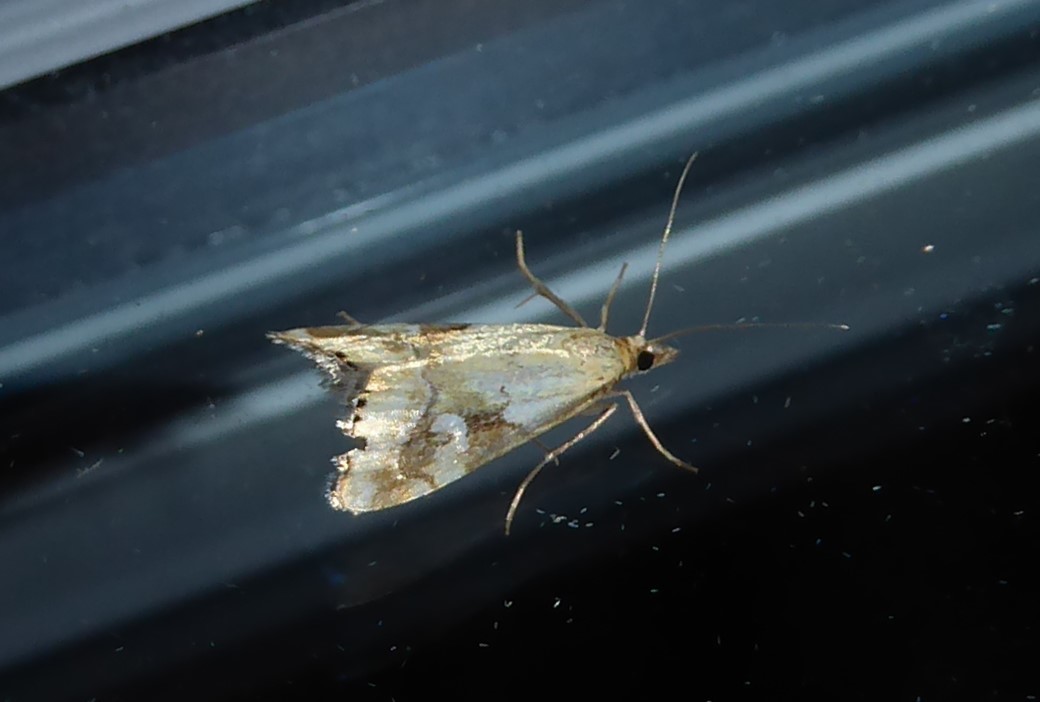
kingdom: Animalia
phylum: Arthropoda
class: Insecta
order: Lepidoptera
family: Crambidae
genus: Glaucocharis
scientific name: Glaucocharis lepidella
